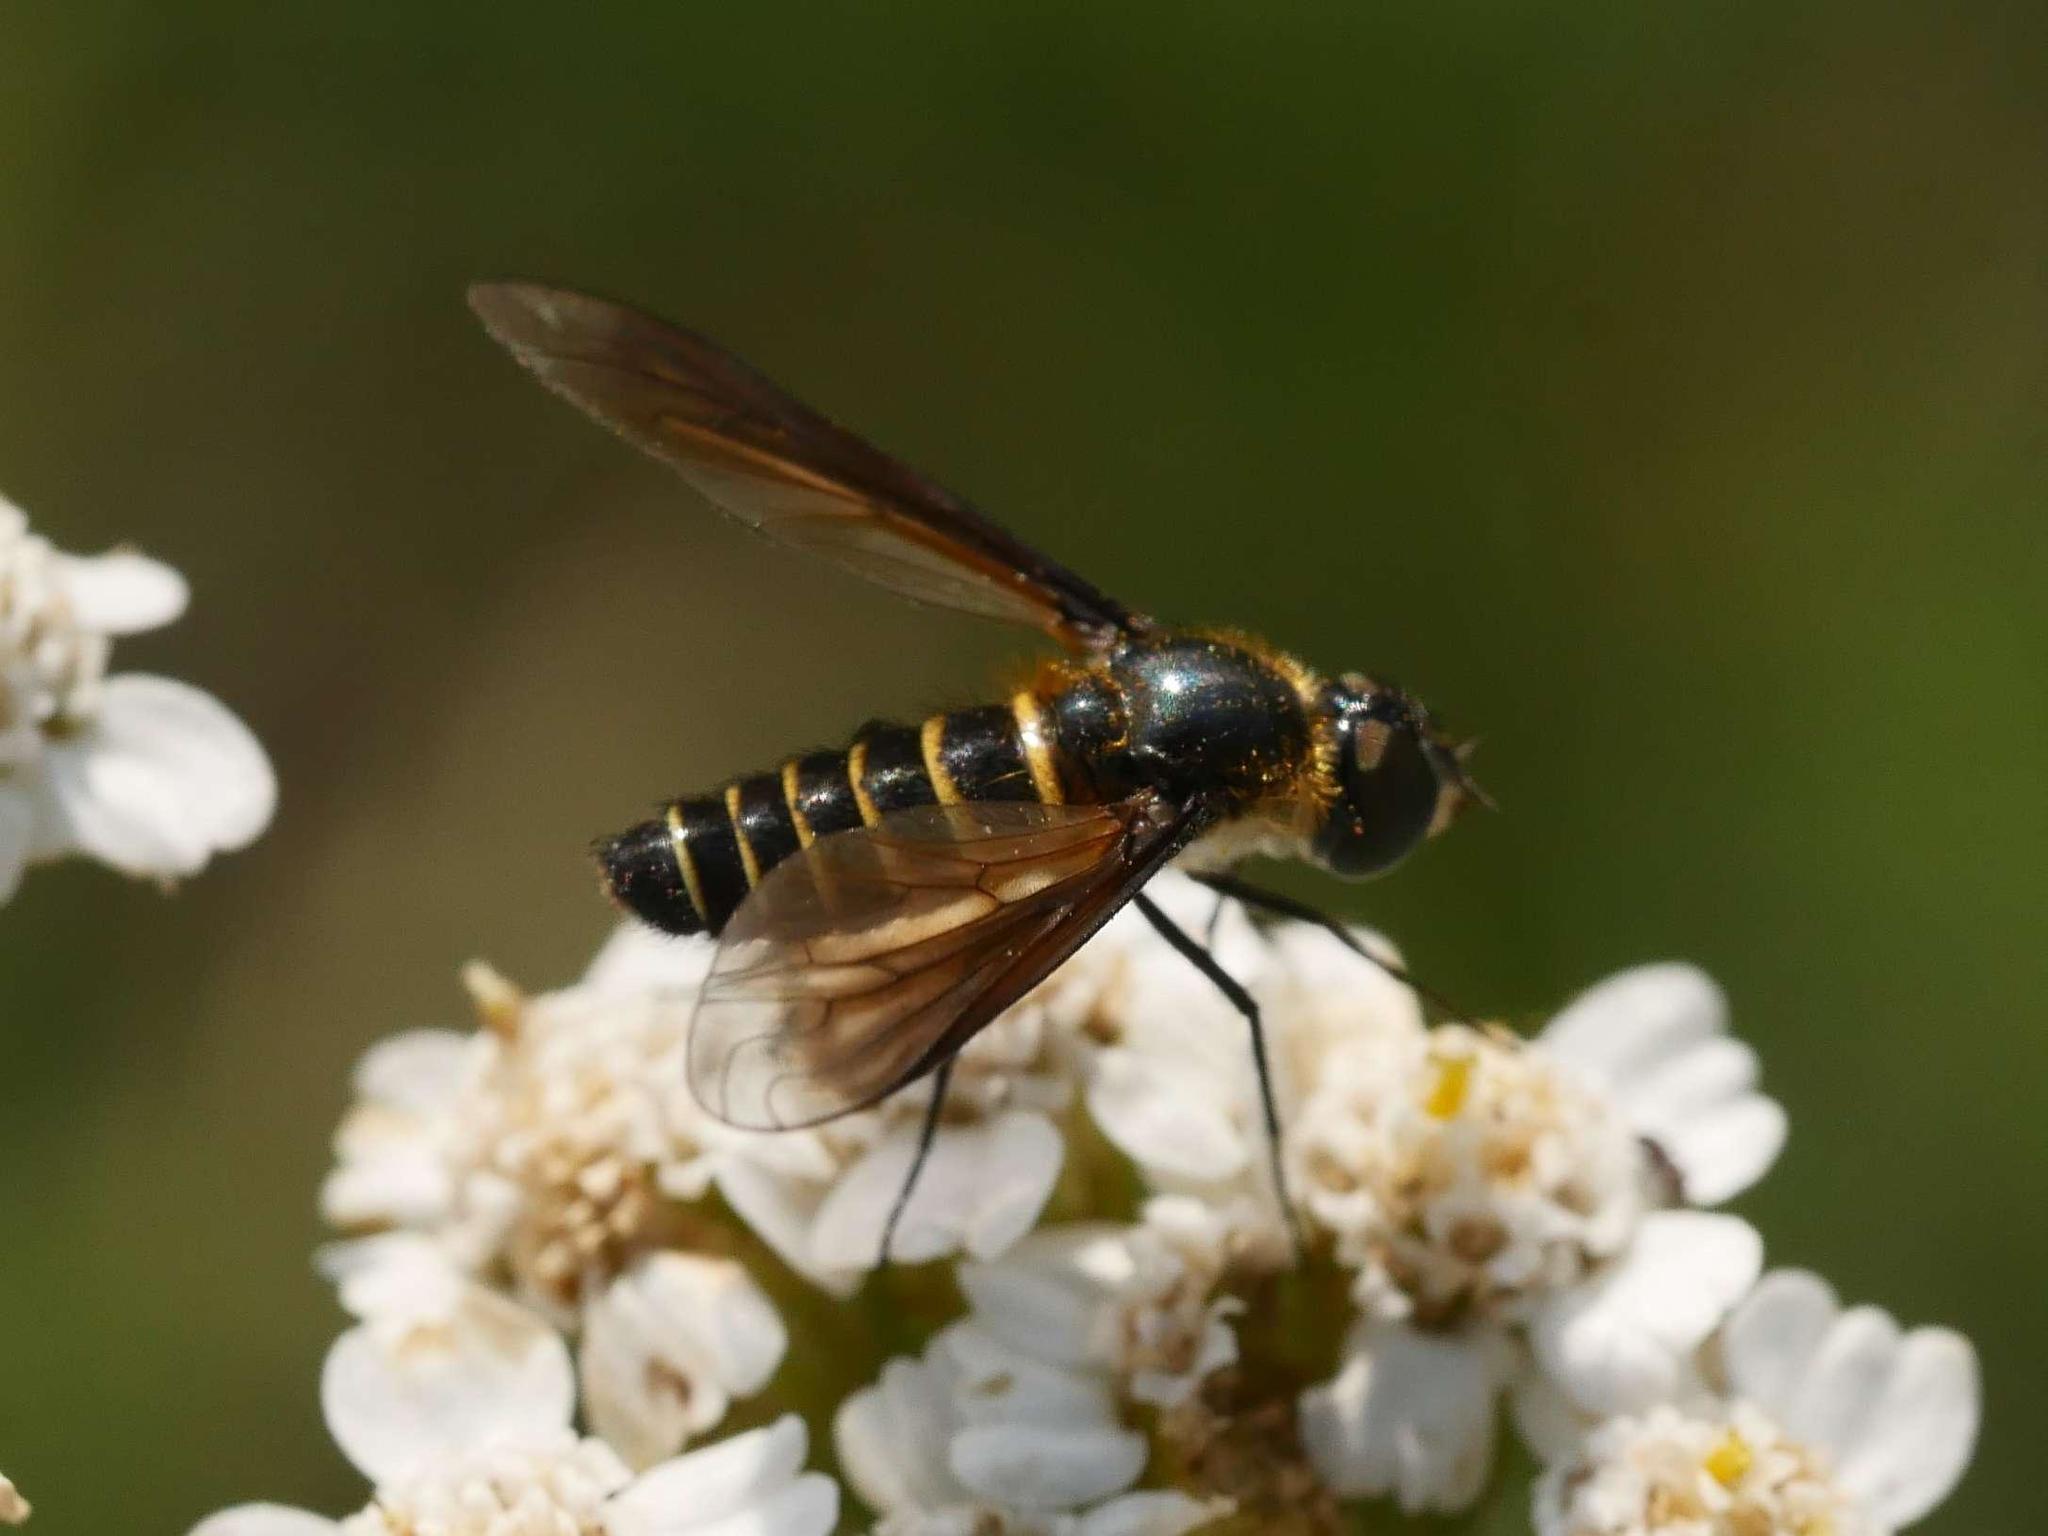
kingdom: Animalia
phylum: Arthropoda
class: Insecta
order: Diptera
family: Bombyliidae
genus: Lomatia
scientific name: Lomatia lateralis
